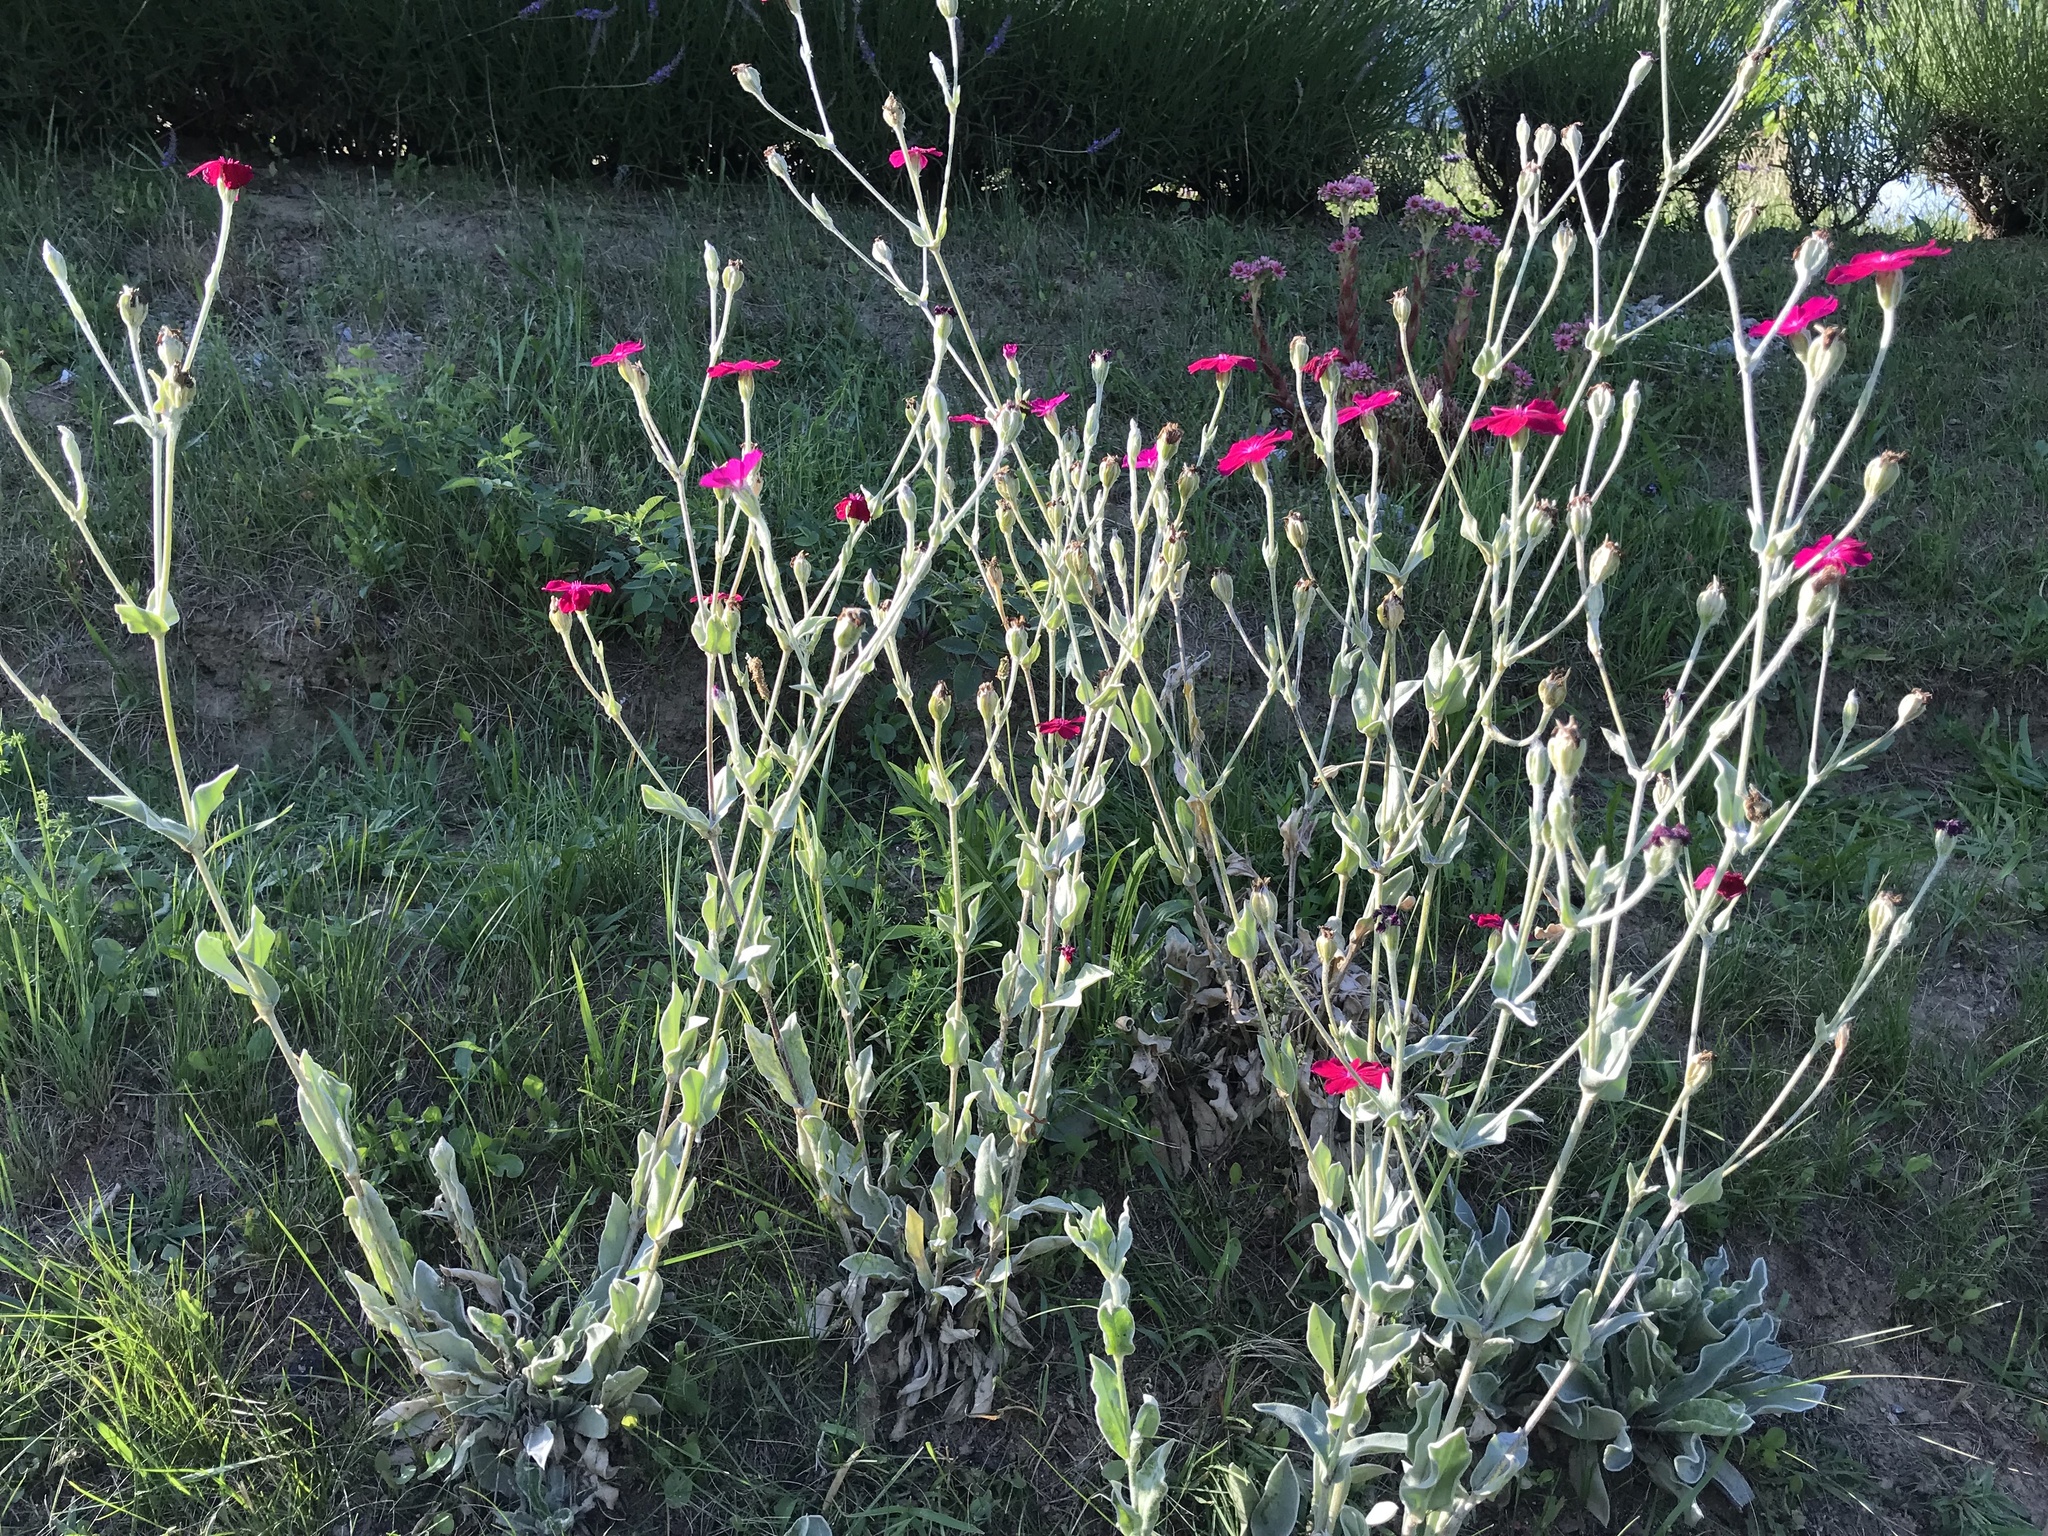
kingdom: Plantae
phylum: Tracheophyta
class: Magnoliopsida
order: Caryophyllales
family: Caryophyllaceae
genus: Silene
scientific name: Silene coronaria
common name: Rose campion
